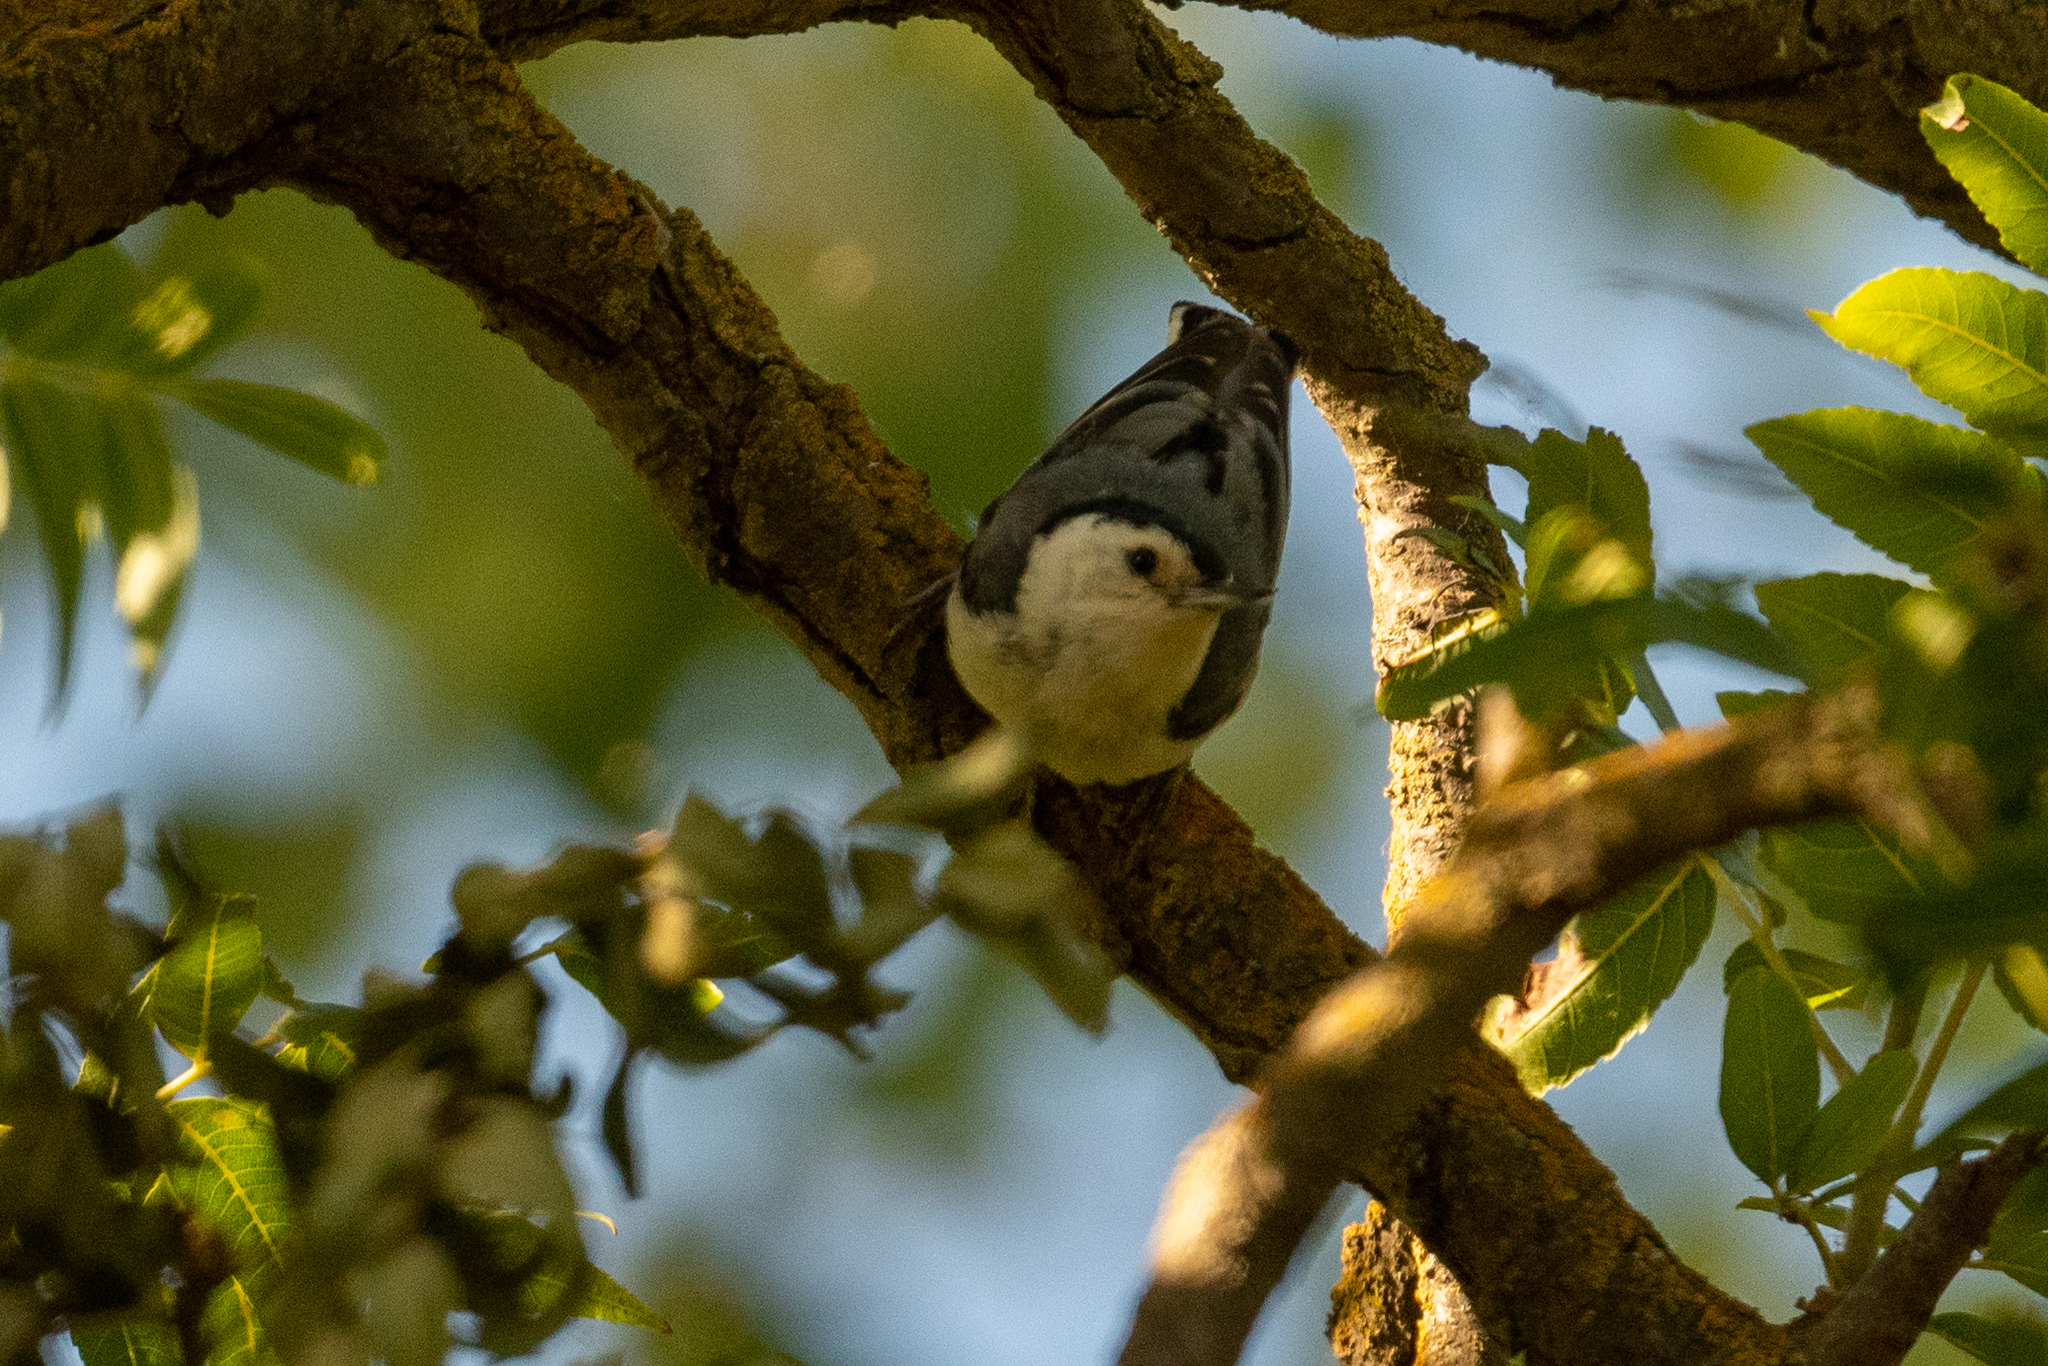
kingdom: Animalia
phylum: Chordata
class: Aves
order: Passeriformes
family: Sittidae
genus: Sitta
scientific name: Sitta carolinensis
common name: White-breasted nuthatch
